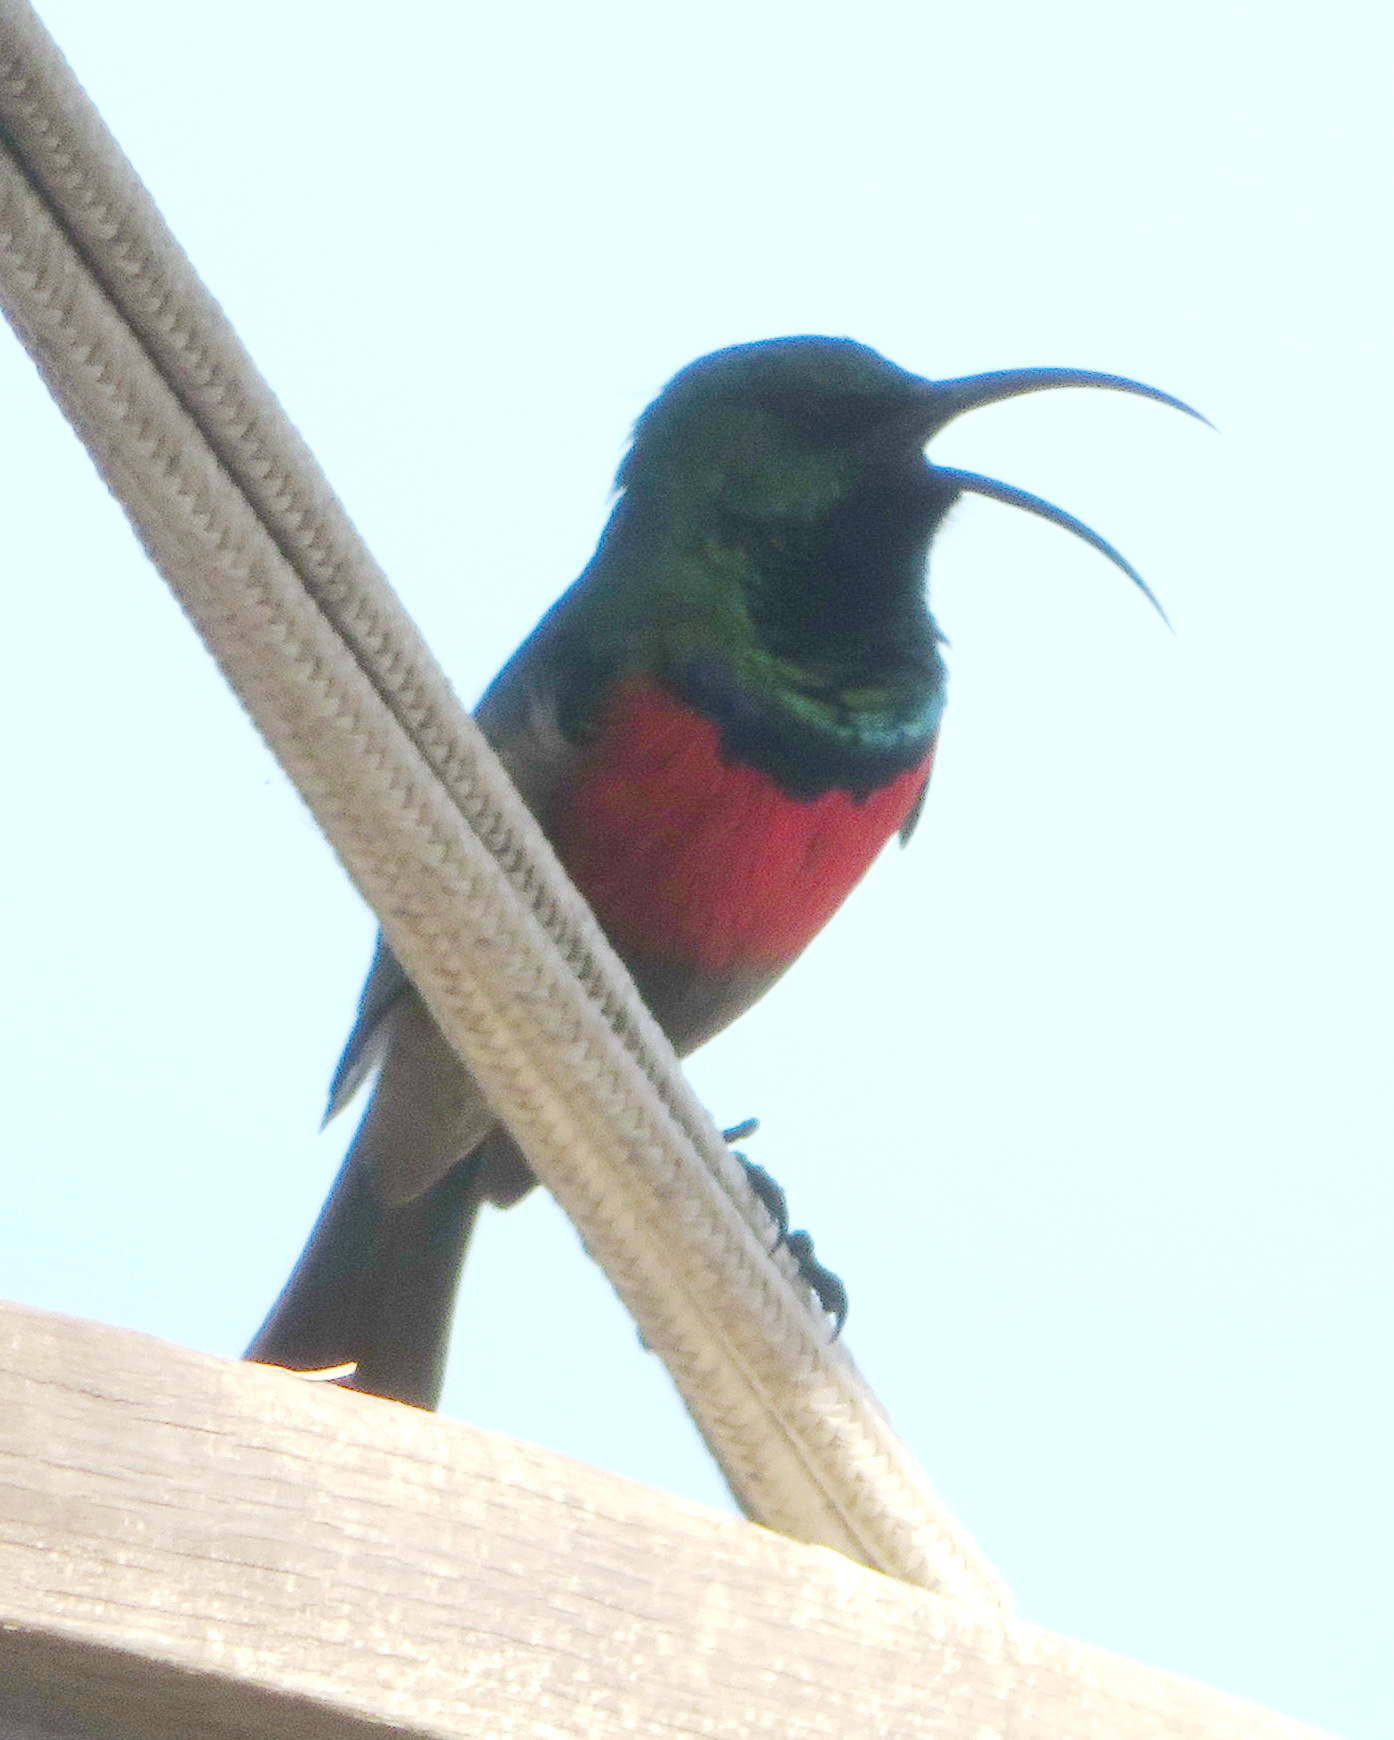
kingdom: Animalia
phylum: Chordata
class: Aves
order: Passeriformes
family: Nectariniidae
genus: Cinnyris
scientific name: Cinnyris afer
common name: Greater double-collared sunbird
